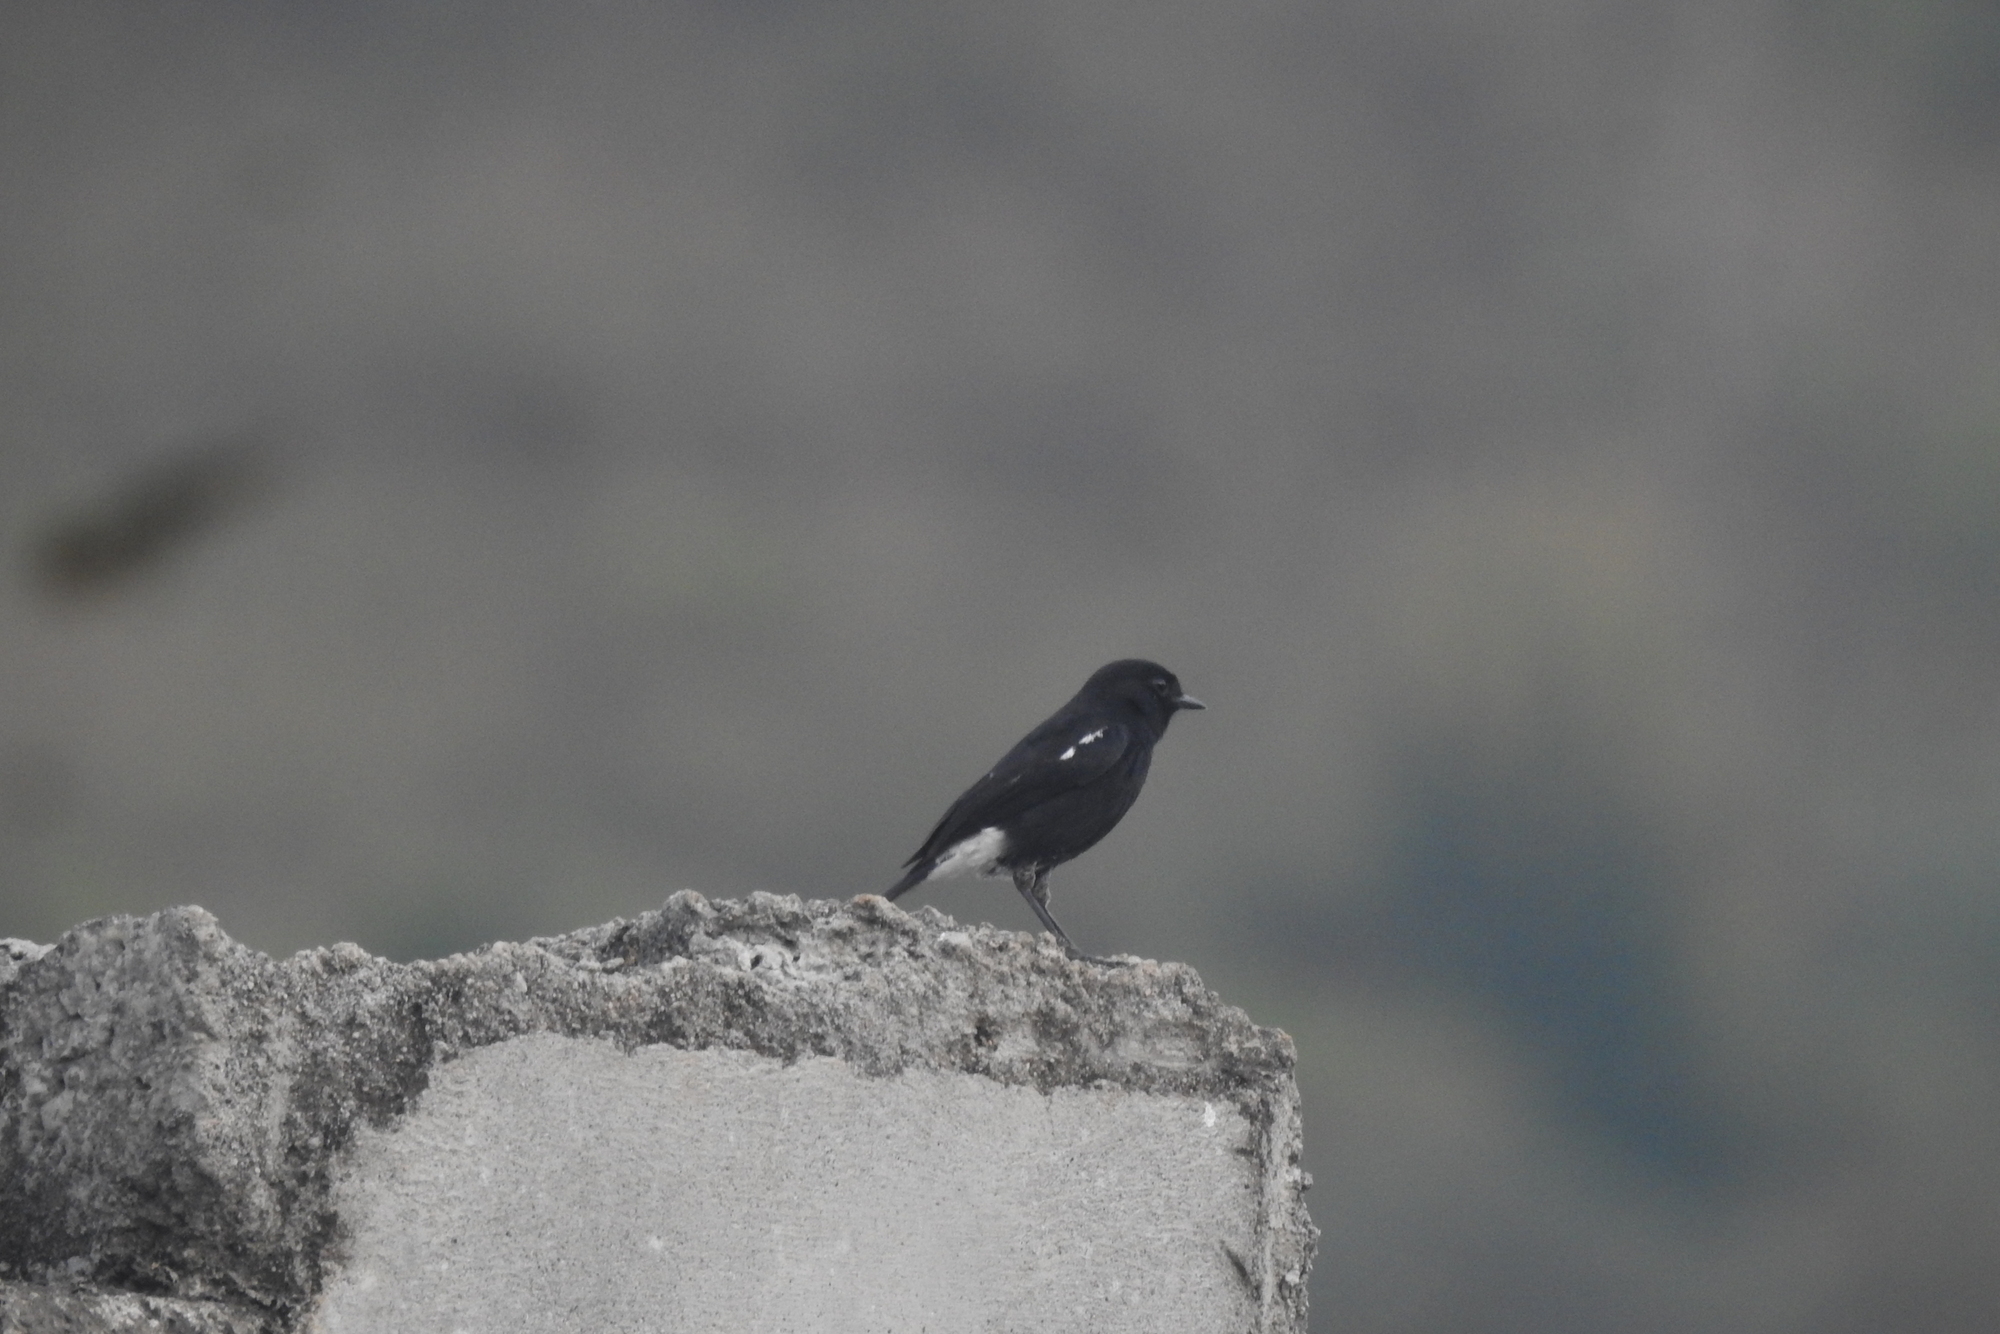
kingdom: Animalia
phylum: Chordata
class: Aves
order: Passeriformes
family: Muscicapidae
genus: Saxicola
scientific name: Saxicola caprata
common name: Pied bush chat
